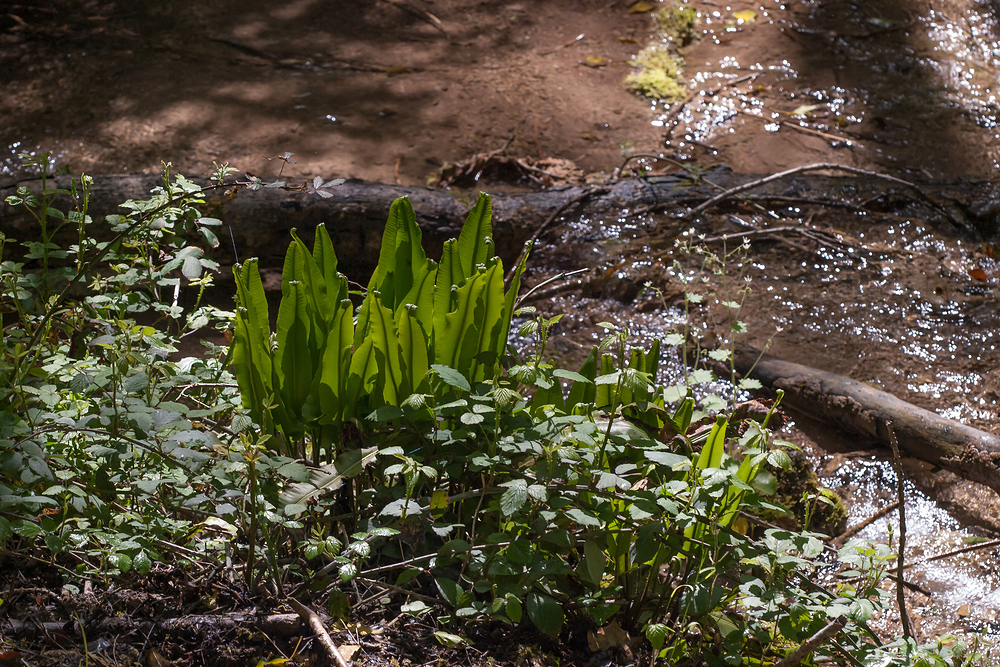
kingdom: Plantae
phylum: Tracheophyta
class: Polypodiopsida
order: Polypodiales
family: Aspleniaceae
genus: Asplenium
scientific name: Asplenium scolopendrium
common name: Hart's-tongue fern
